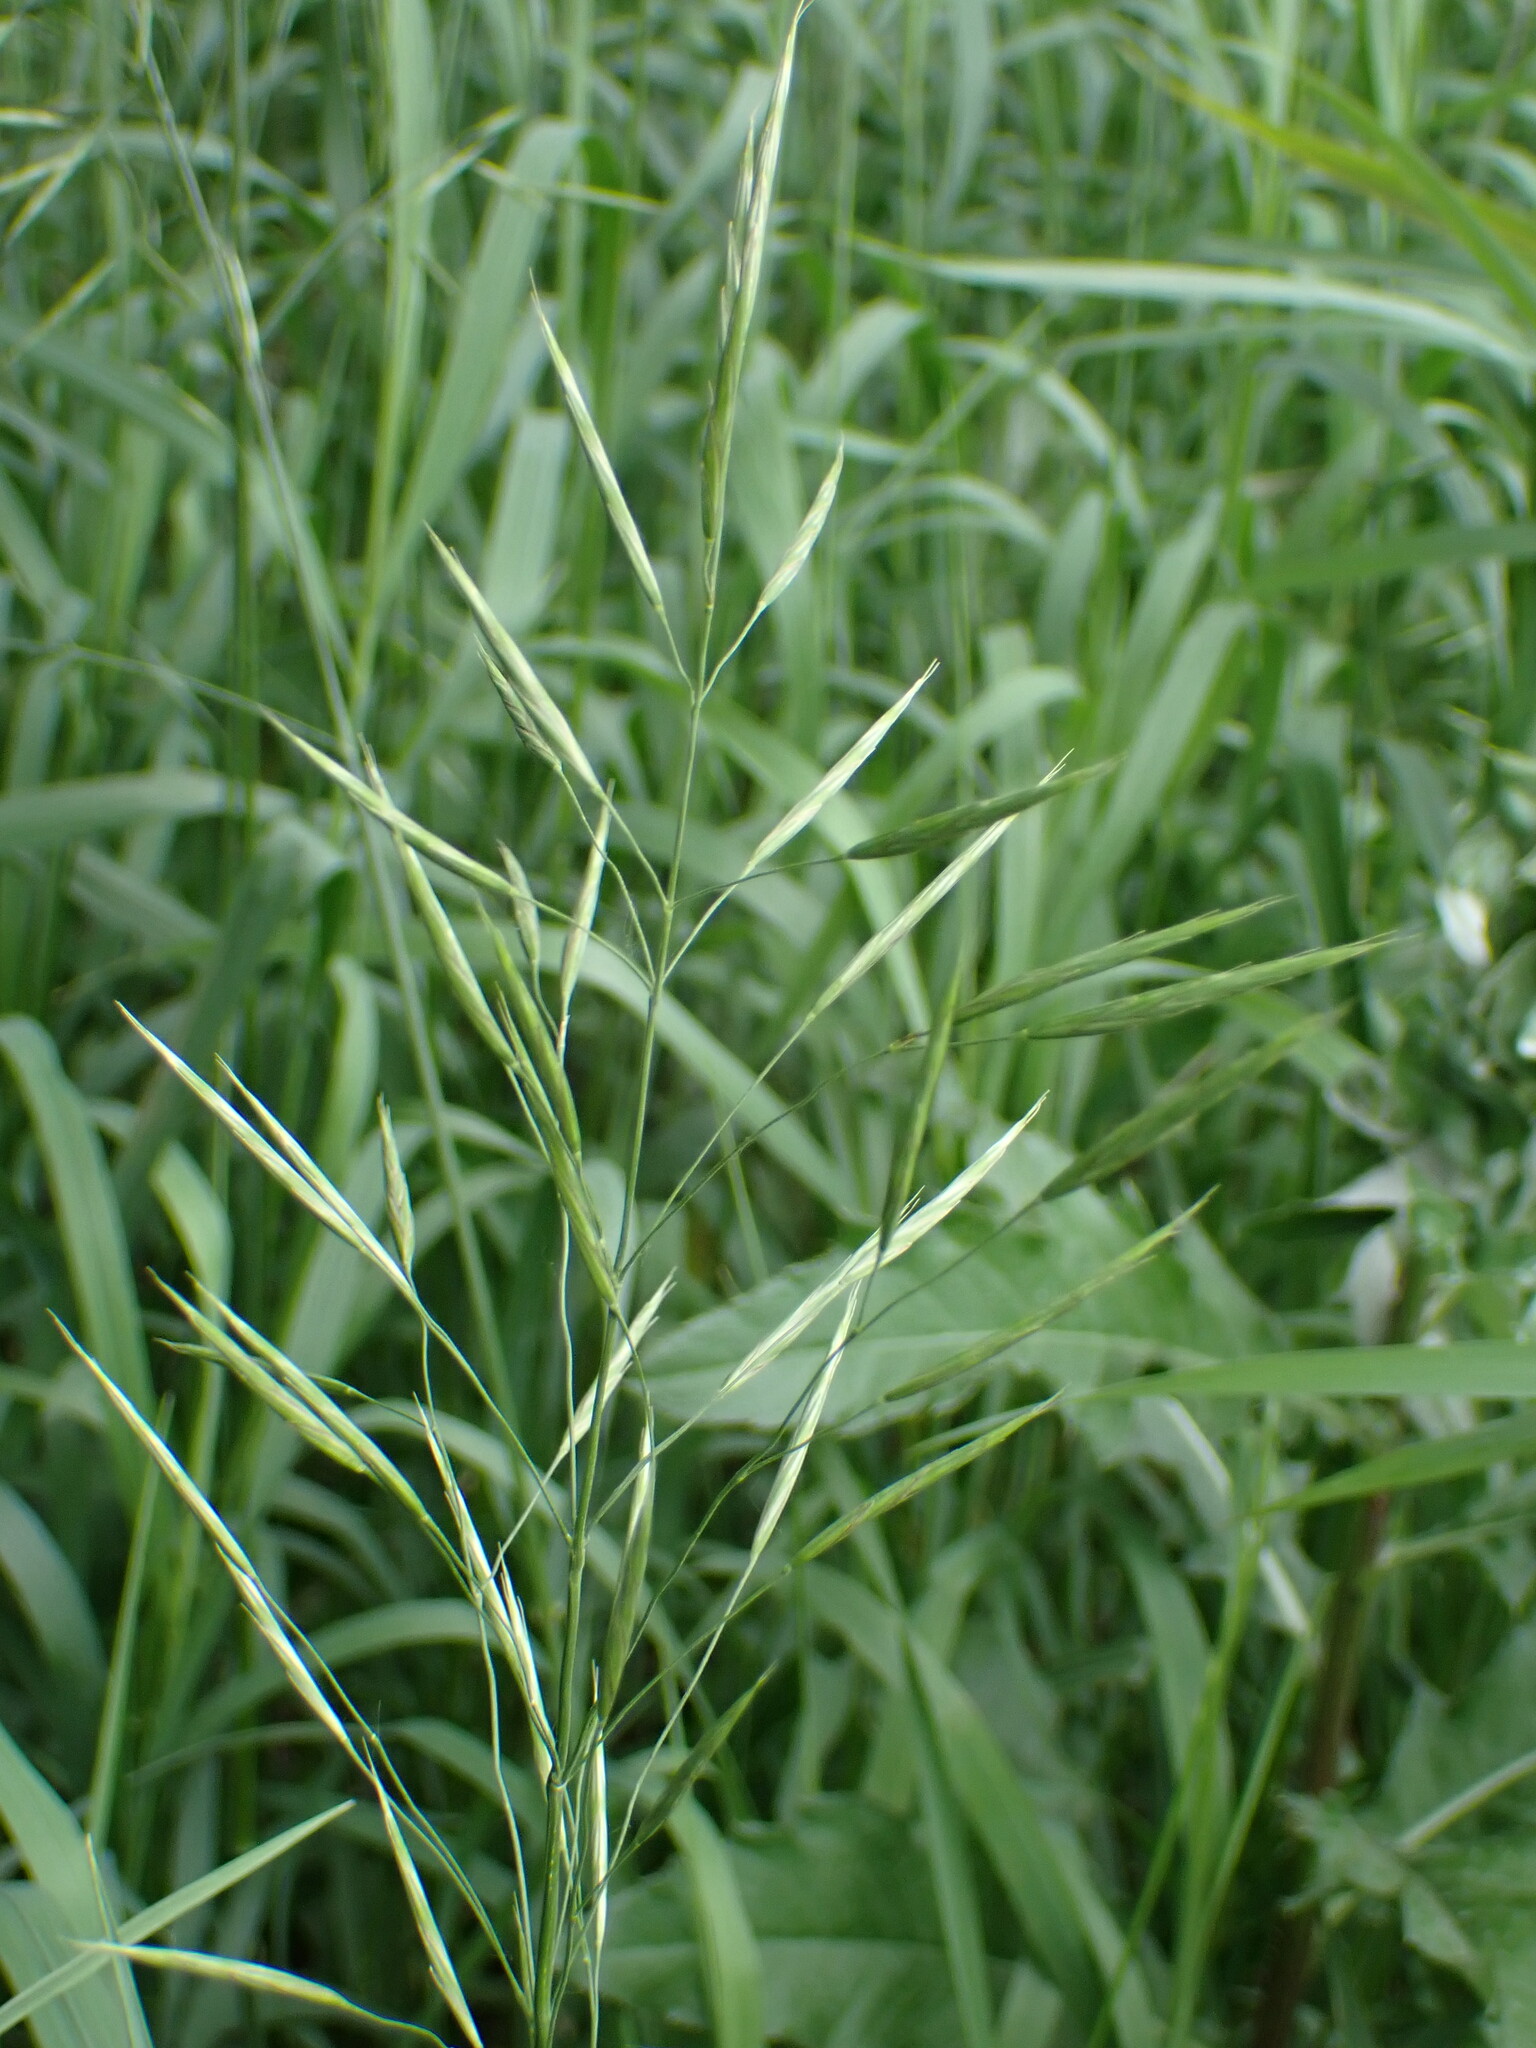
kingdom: Plantae
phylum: Tracheophyta
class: Liliopsida
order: Poales
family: Poaceae
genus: Bromus
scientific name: Bromus inermis
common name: Smooth brome
